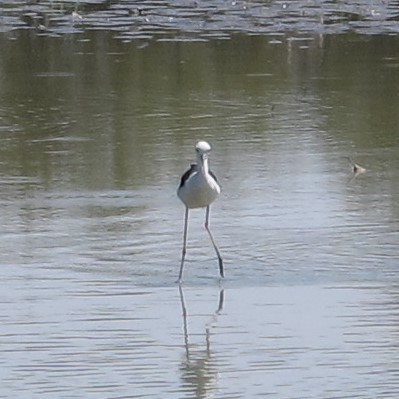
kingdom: Animalia
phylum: Chordata
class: Aves
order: Charadriiformes
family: Recurvirostridae
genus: Himantopus
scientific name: Himantopus himantopus
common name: Black-winged stilt
